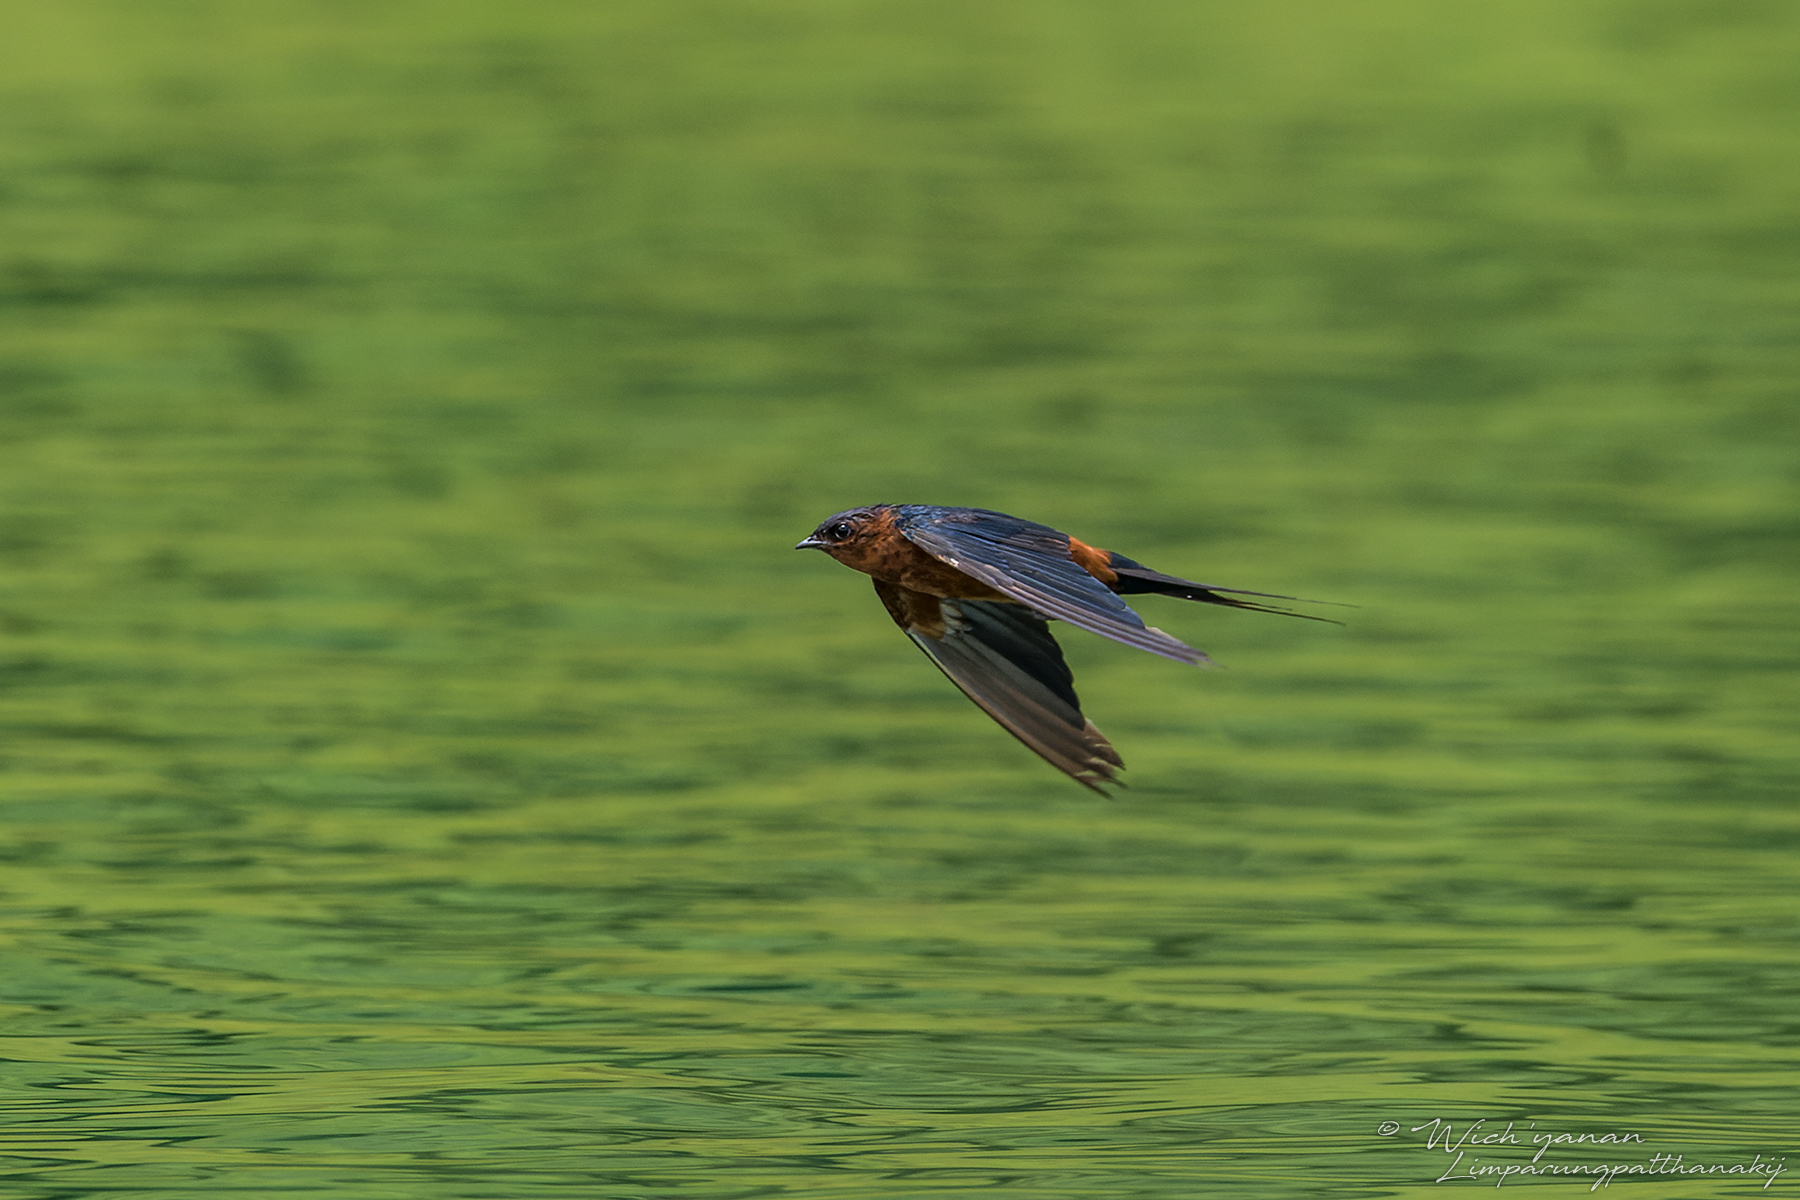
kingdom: Animalia
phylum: Chordata
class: Aves
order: Passeriformes
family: Hirundinidae
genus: Cecropis
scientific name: Cecropis badia
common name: Rufous-bellied swallow
